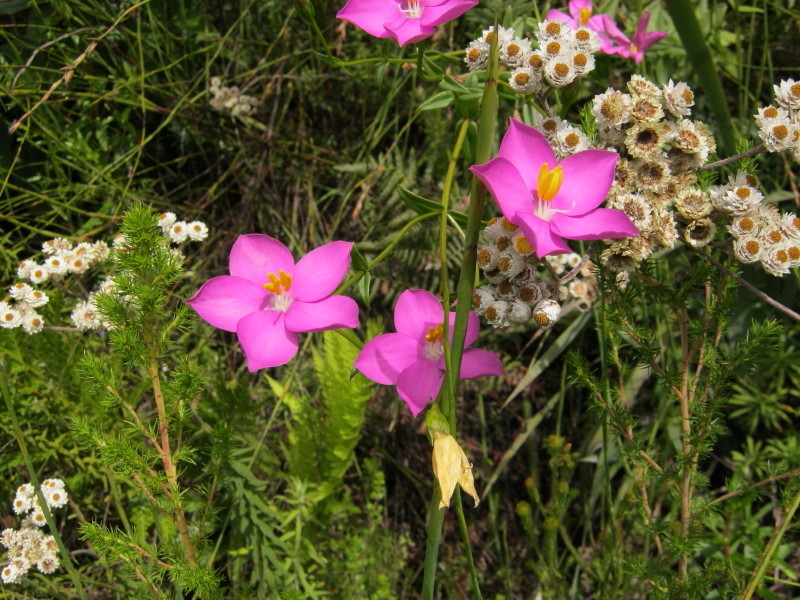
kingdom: Plantae
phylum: Tracheophyta
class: Magnoliopsida
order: Gentianales
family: Gentianaceae
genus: Chironia
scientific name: Chironia melampyrifolia
